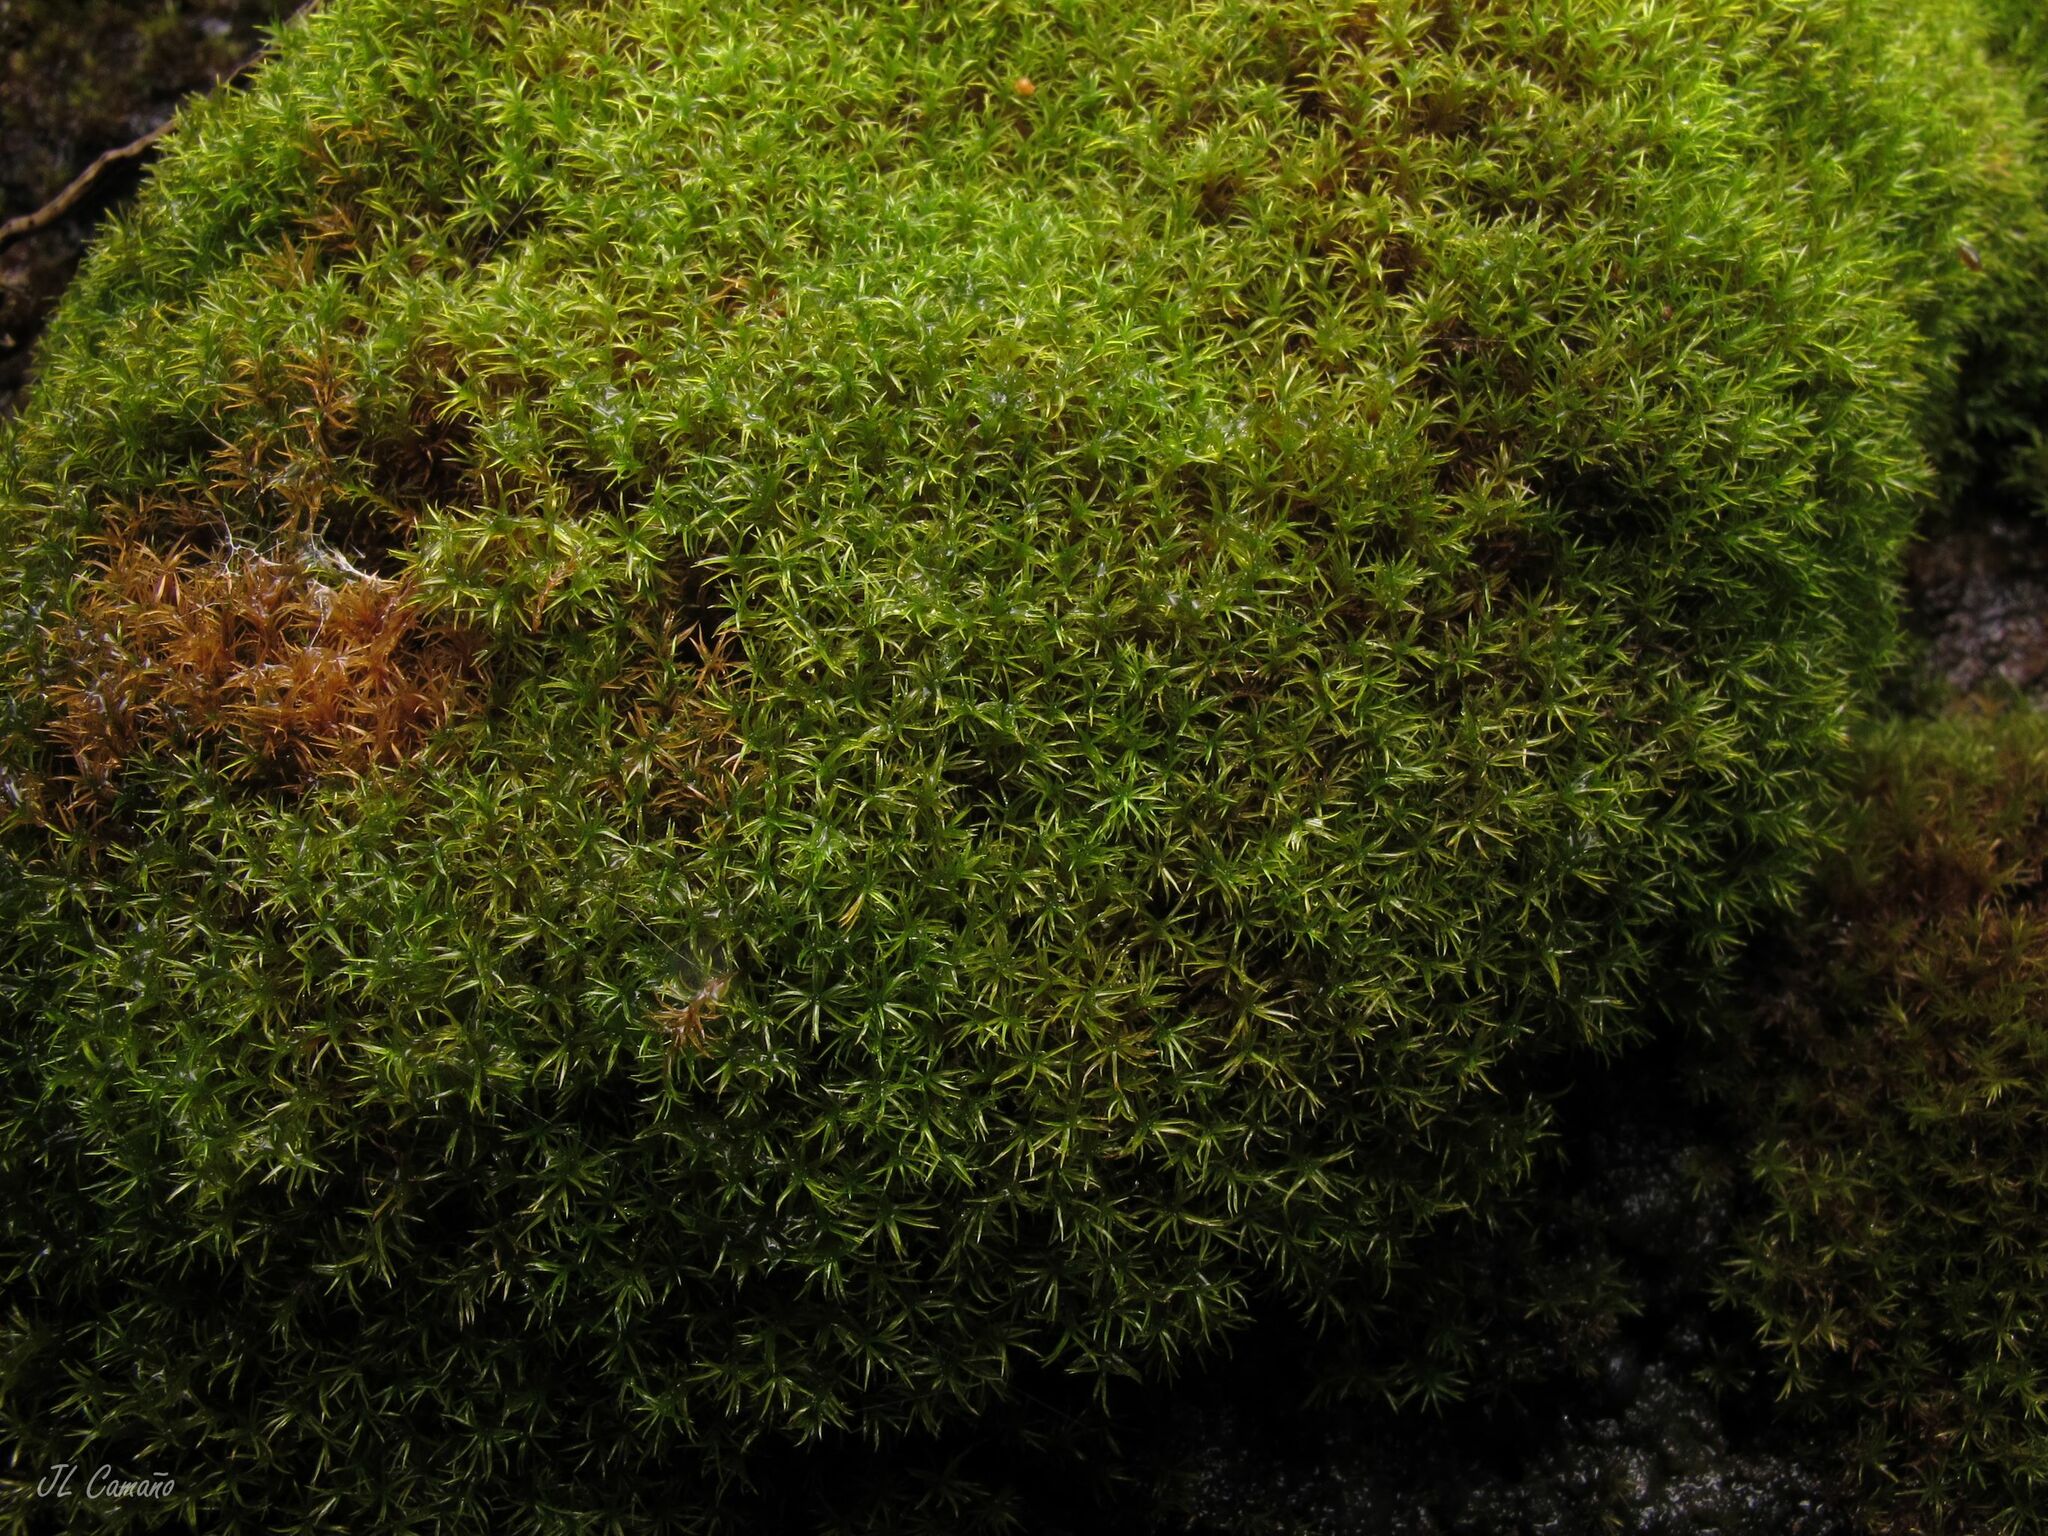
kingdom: Plantae
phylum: Bryophyta
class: Bryopsida
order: Dicranales
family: Amphidiaceae
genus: Amphidium
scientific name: Amphidium mougeotii
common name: Mougeot's yoke moss
